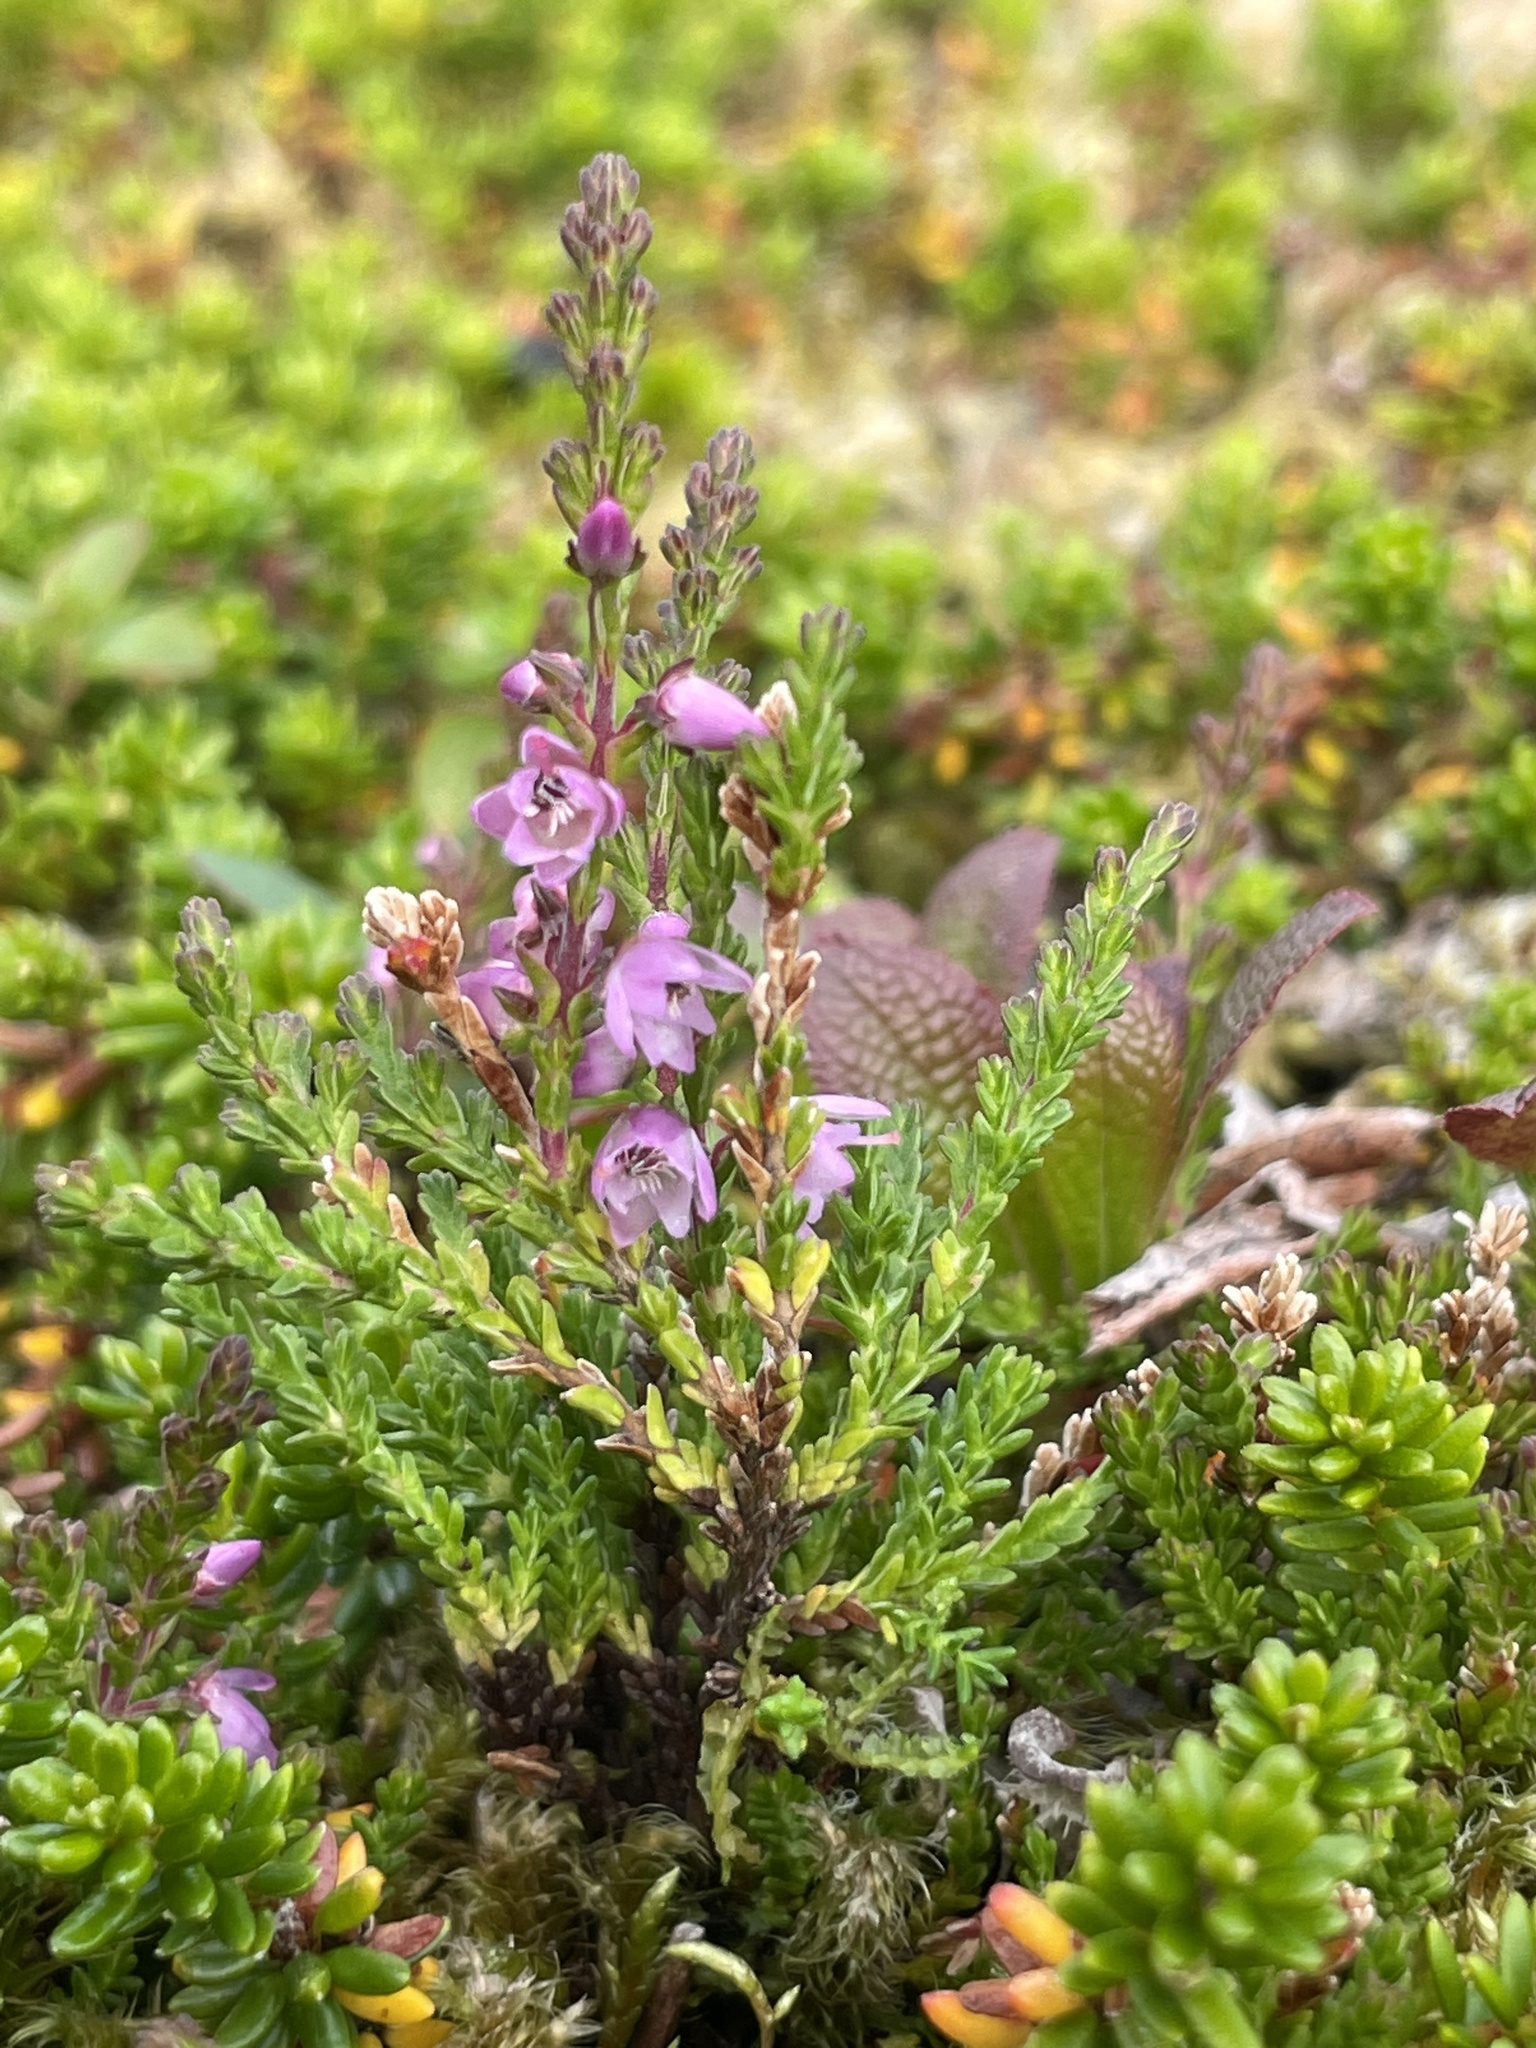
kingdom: Plantae
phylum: Tracheophyta
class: Magnoliopsida
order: Ericales
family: Ericaceae
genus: Calluna
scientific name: Calluna vulgaris
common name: Heather
